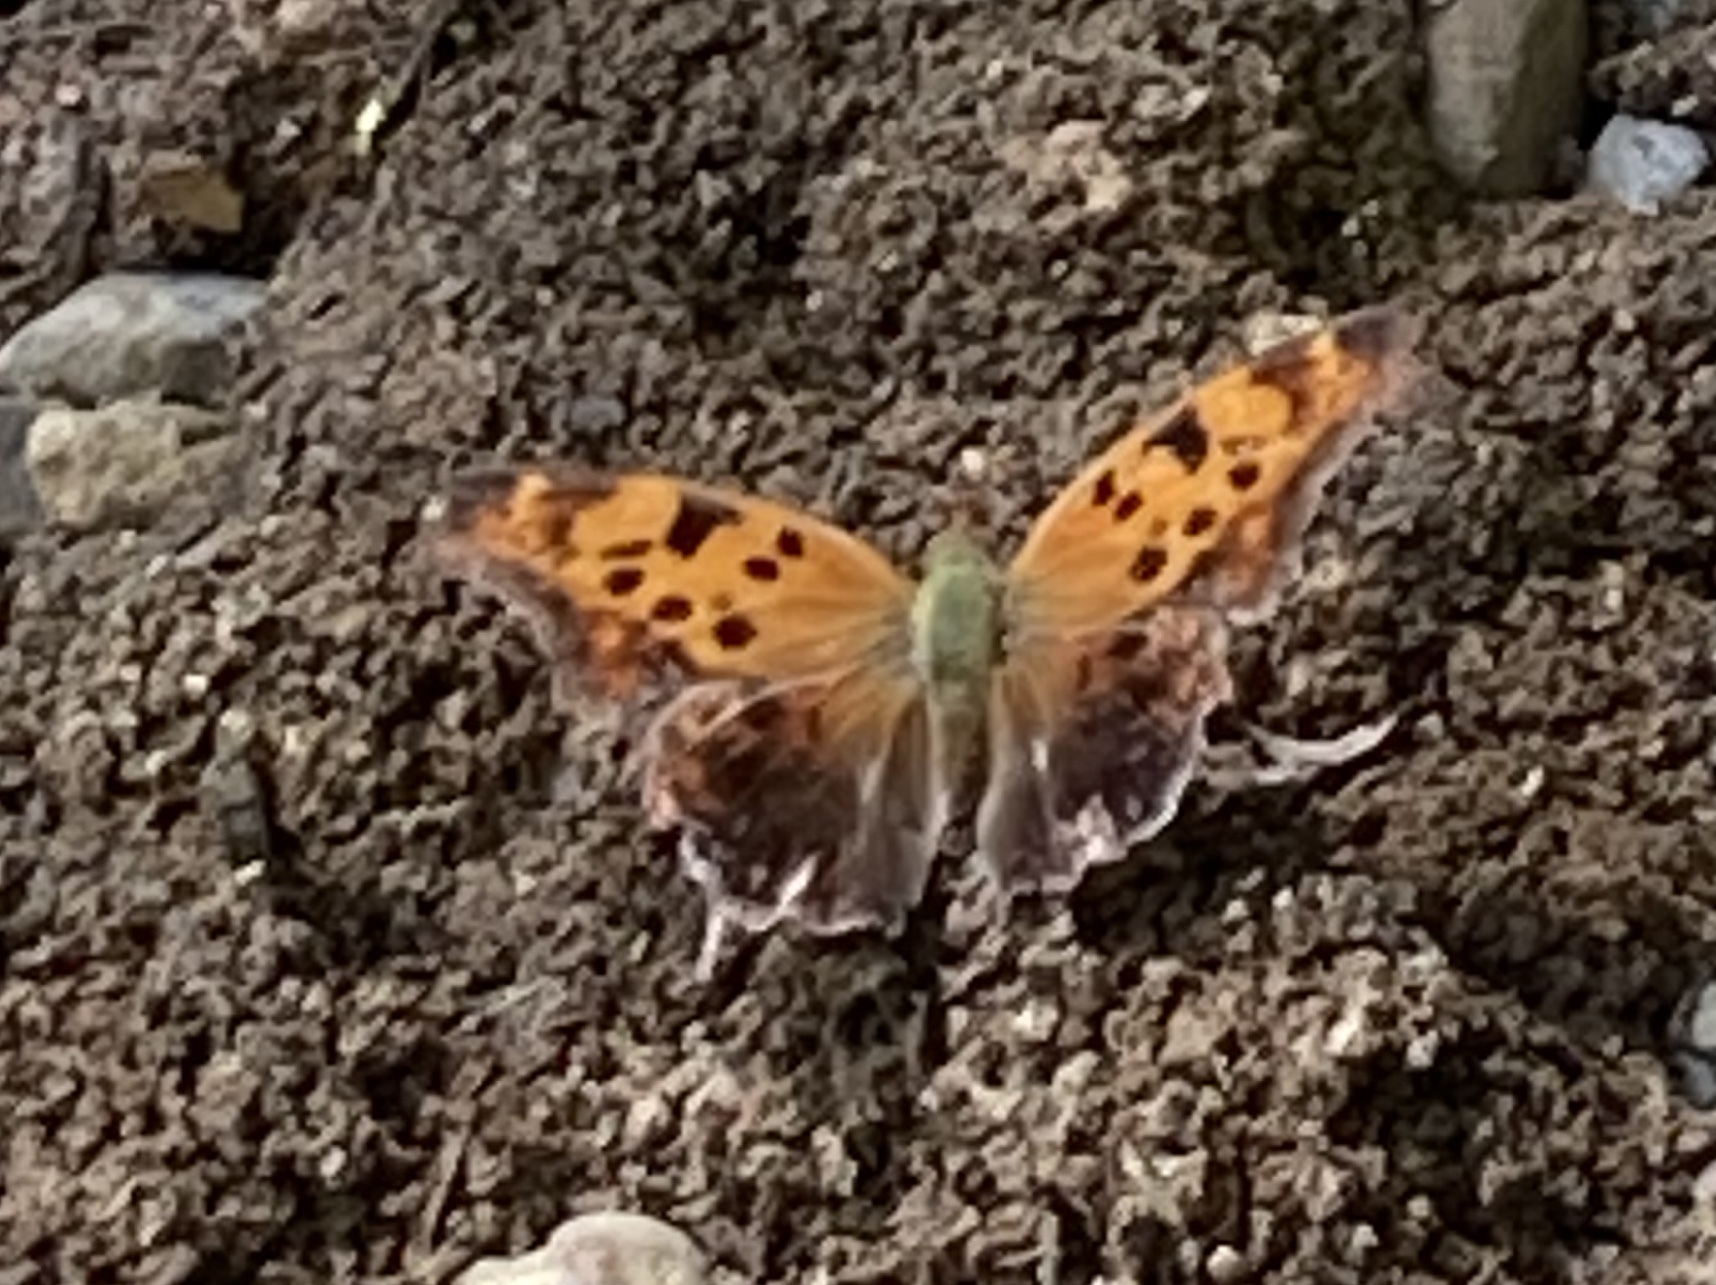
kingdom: Animalia
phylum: Arthropoda
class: Insecta
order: Lepidoptera
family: Nymphalidae
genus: Polygonia
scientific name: Polygonia interrogationis
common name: Question mark
